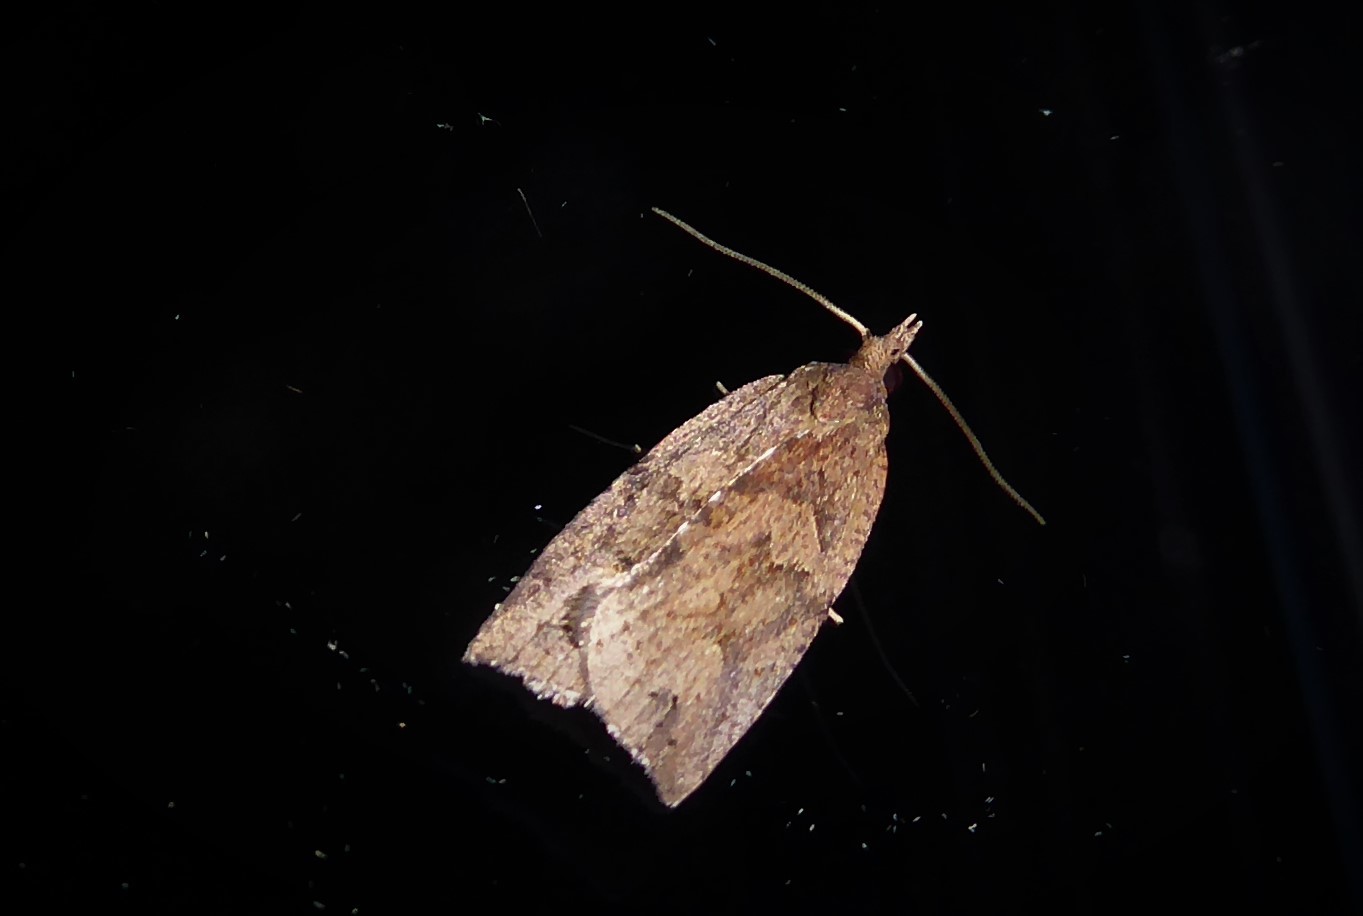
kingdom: Animalia
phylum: Arthropoda
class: Insecta
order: Lepidoptera
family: Tortricidae
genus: Planotortrix
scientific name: Planotortrix notophaea
